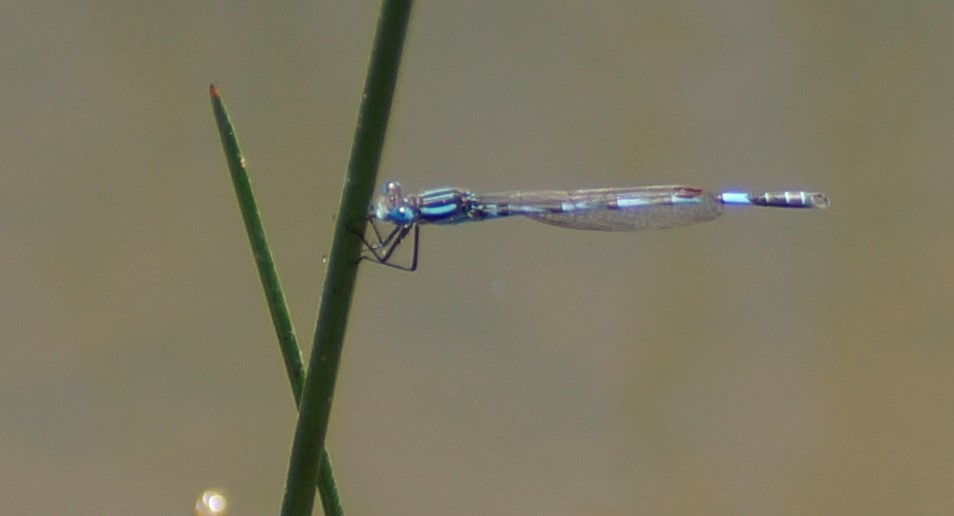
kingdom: Animalia
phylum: Arthropoda
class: Insecta
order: Odonata
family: Lestidae
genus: Austrolestes
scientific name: Austrolestes annulosus
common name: Blue ringtail
